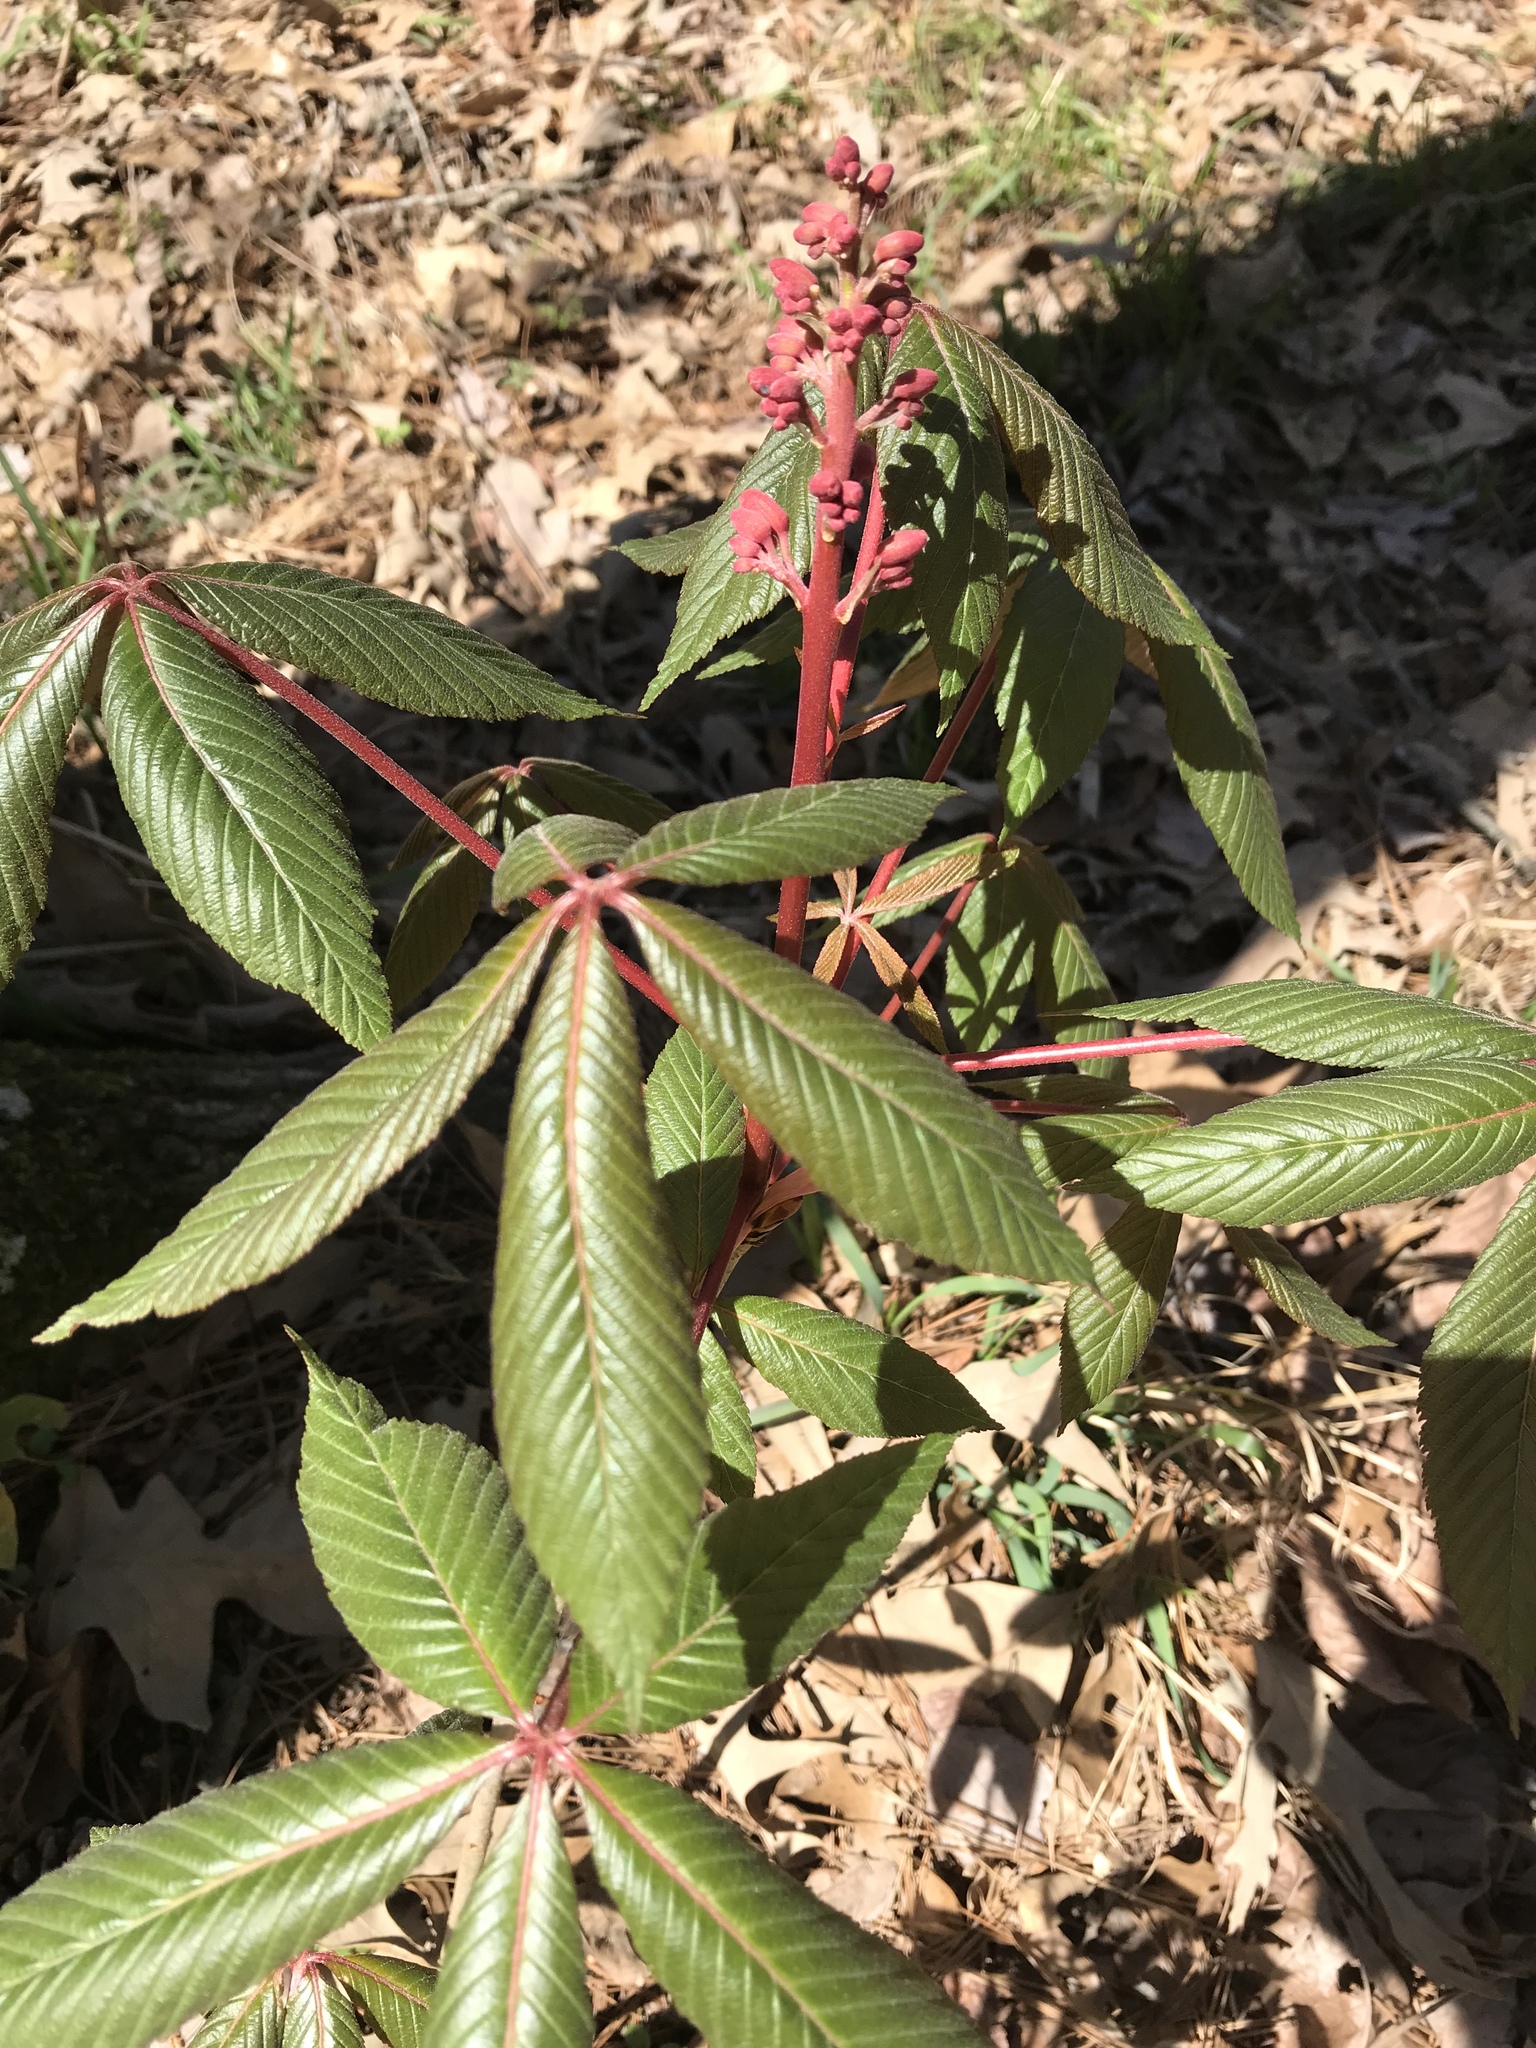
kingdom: Plantae
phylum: Tracheophyta
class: Magnoliopsida
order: Sapindales
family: Sapindaceae
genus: Aesculus
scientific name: Aesculus pavia
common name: Red buckeye
